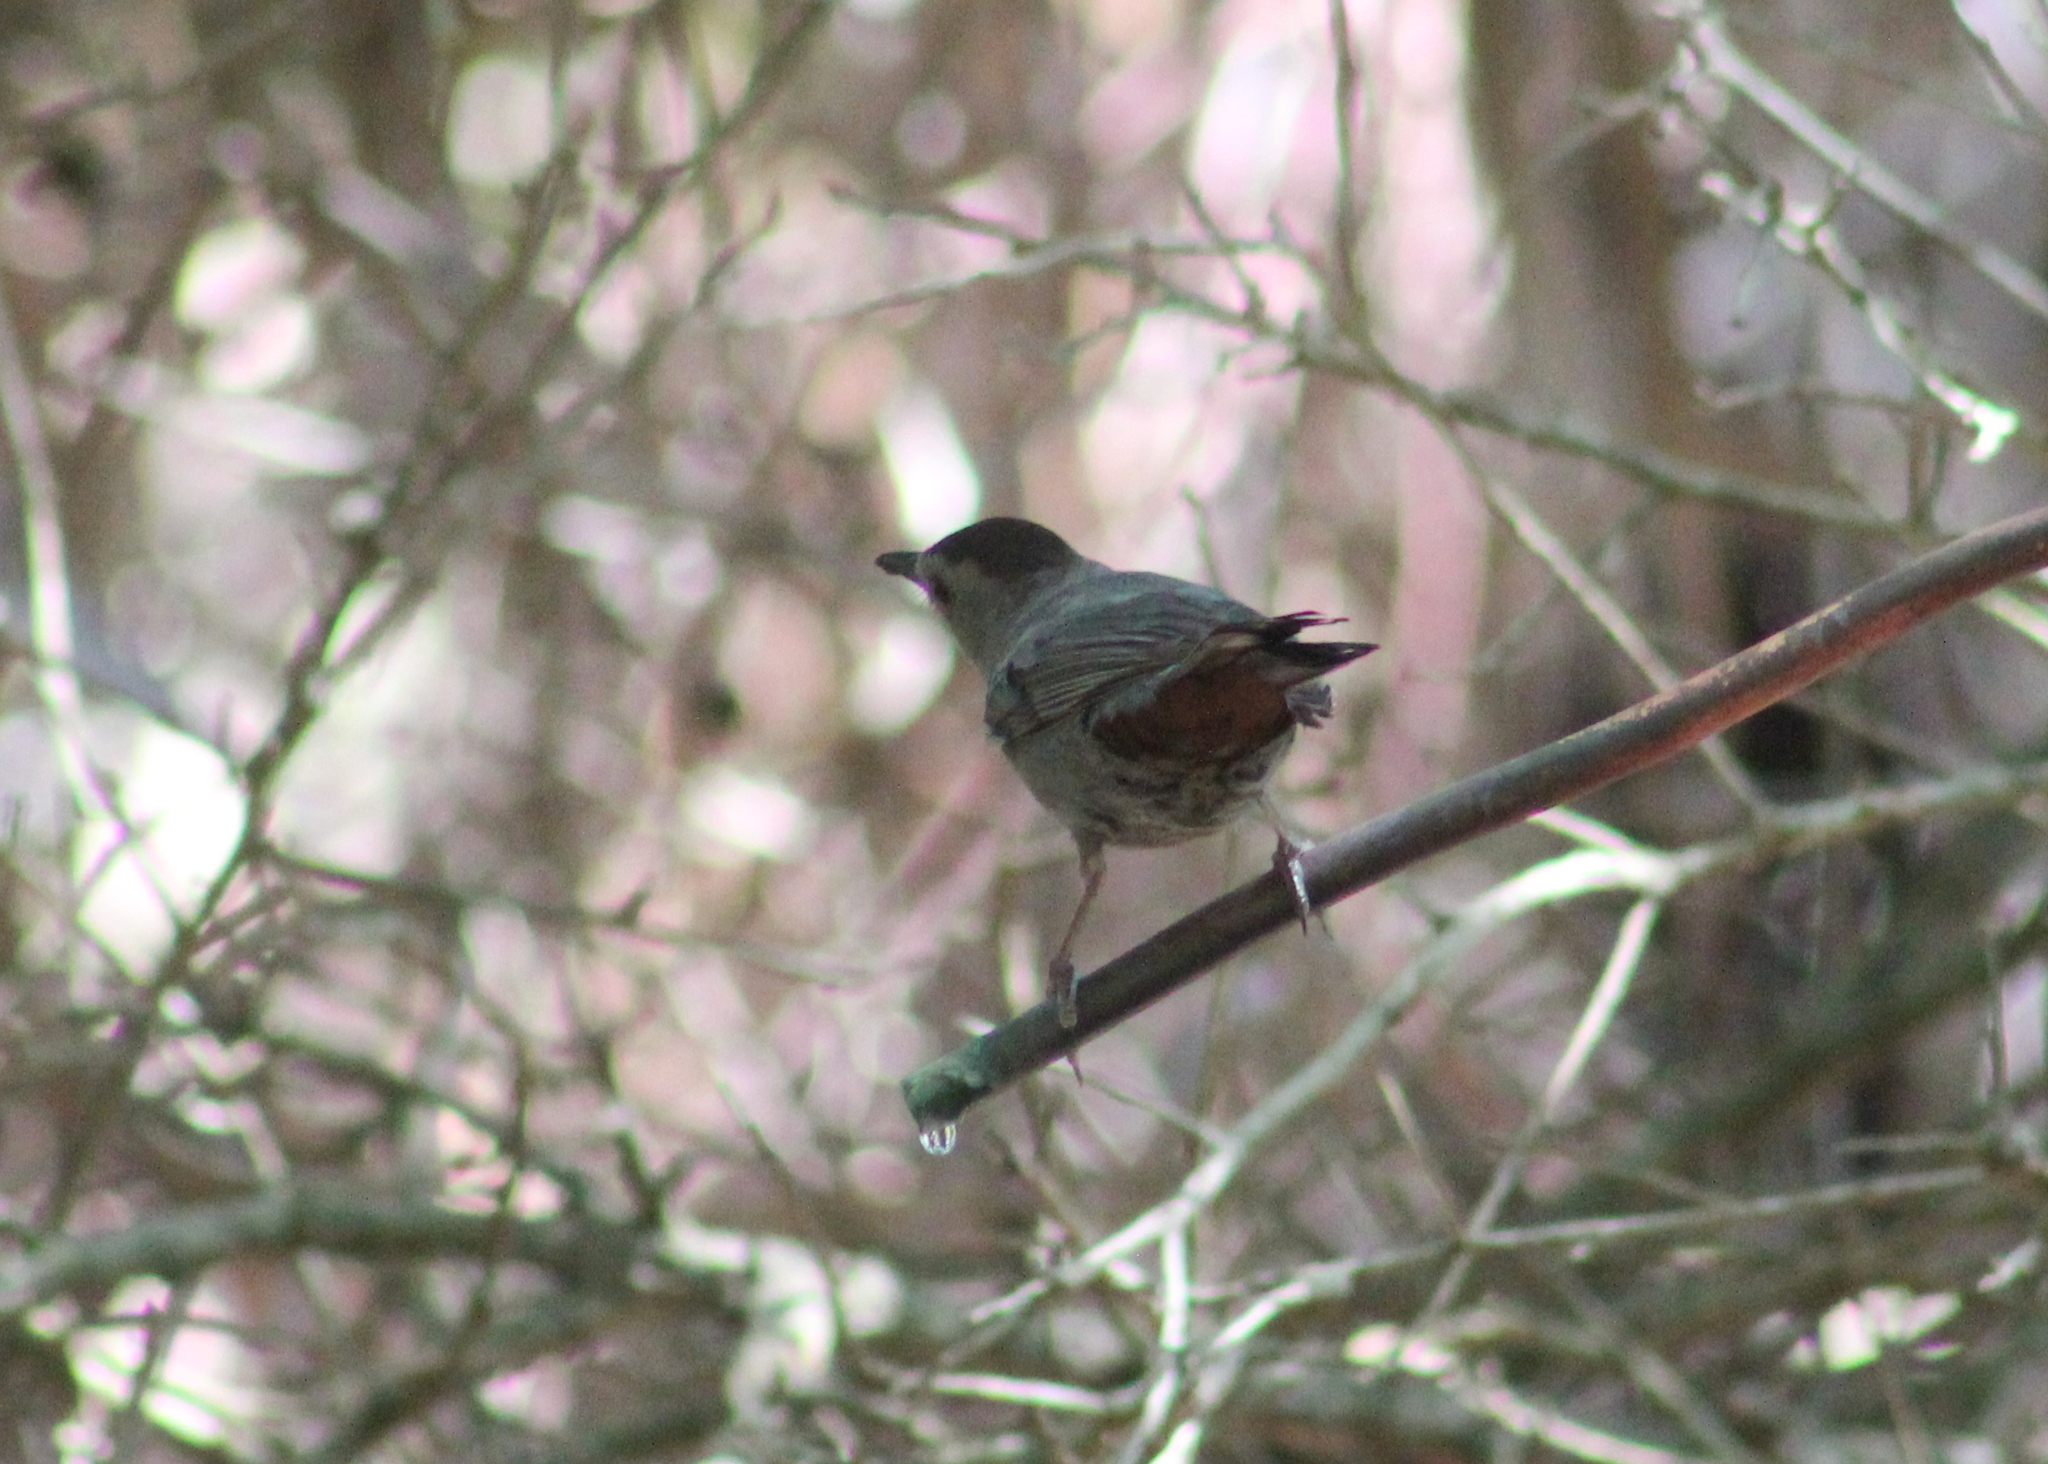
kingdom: Animalia
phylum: Chordata
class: Aves
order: Passeriformes
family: Mimidae
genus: Dumetella
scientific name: Dumetella carolinensis
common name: Gray catbird
